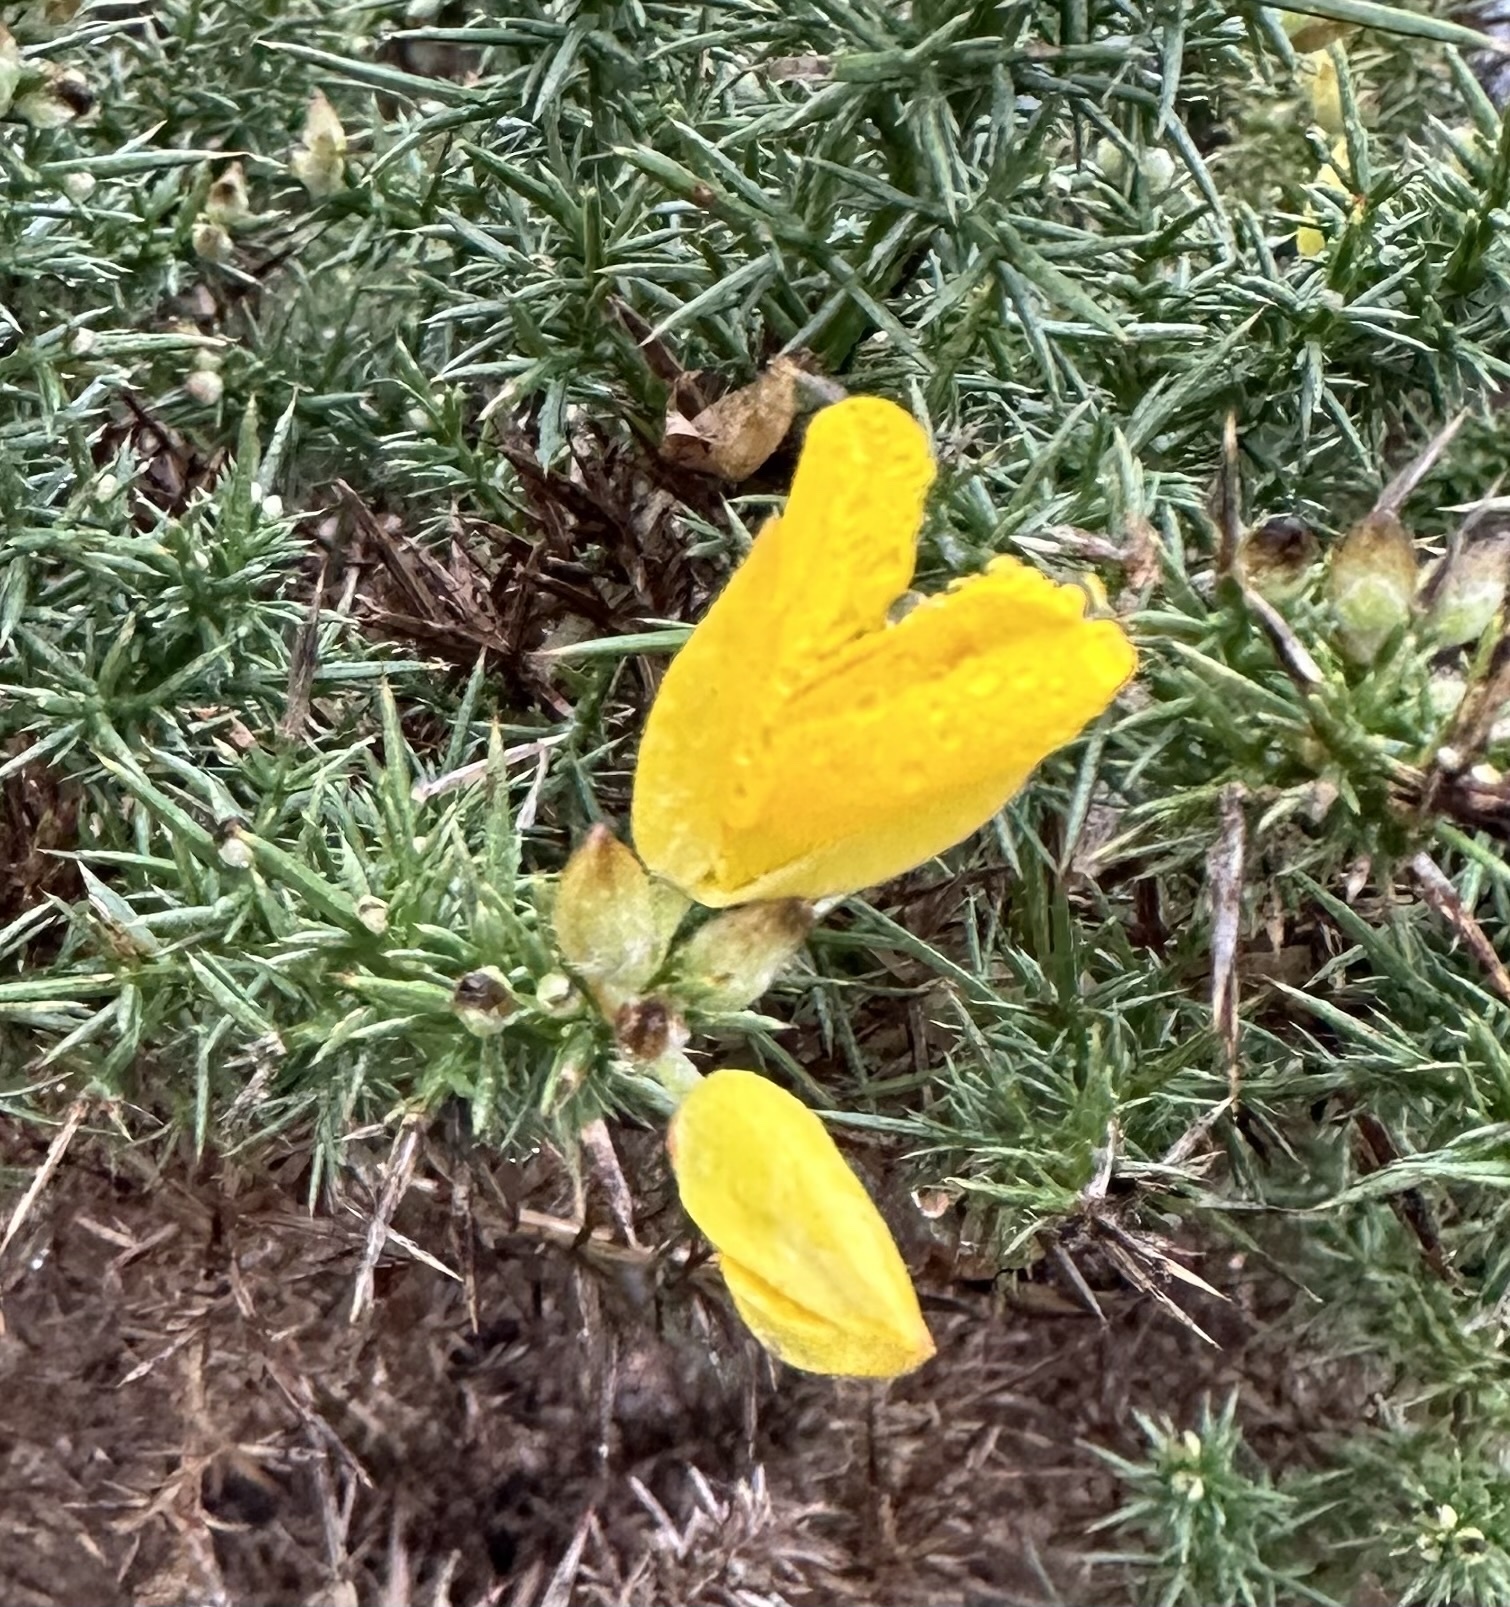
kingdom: Plantae
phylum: Tracheophyta
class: Magnoliopsida
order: Fabales
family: Fabaceae
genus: Ulex
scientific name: Ulex europaeus
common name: Common gorse
